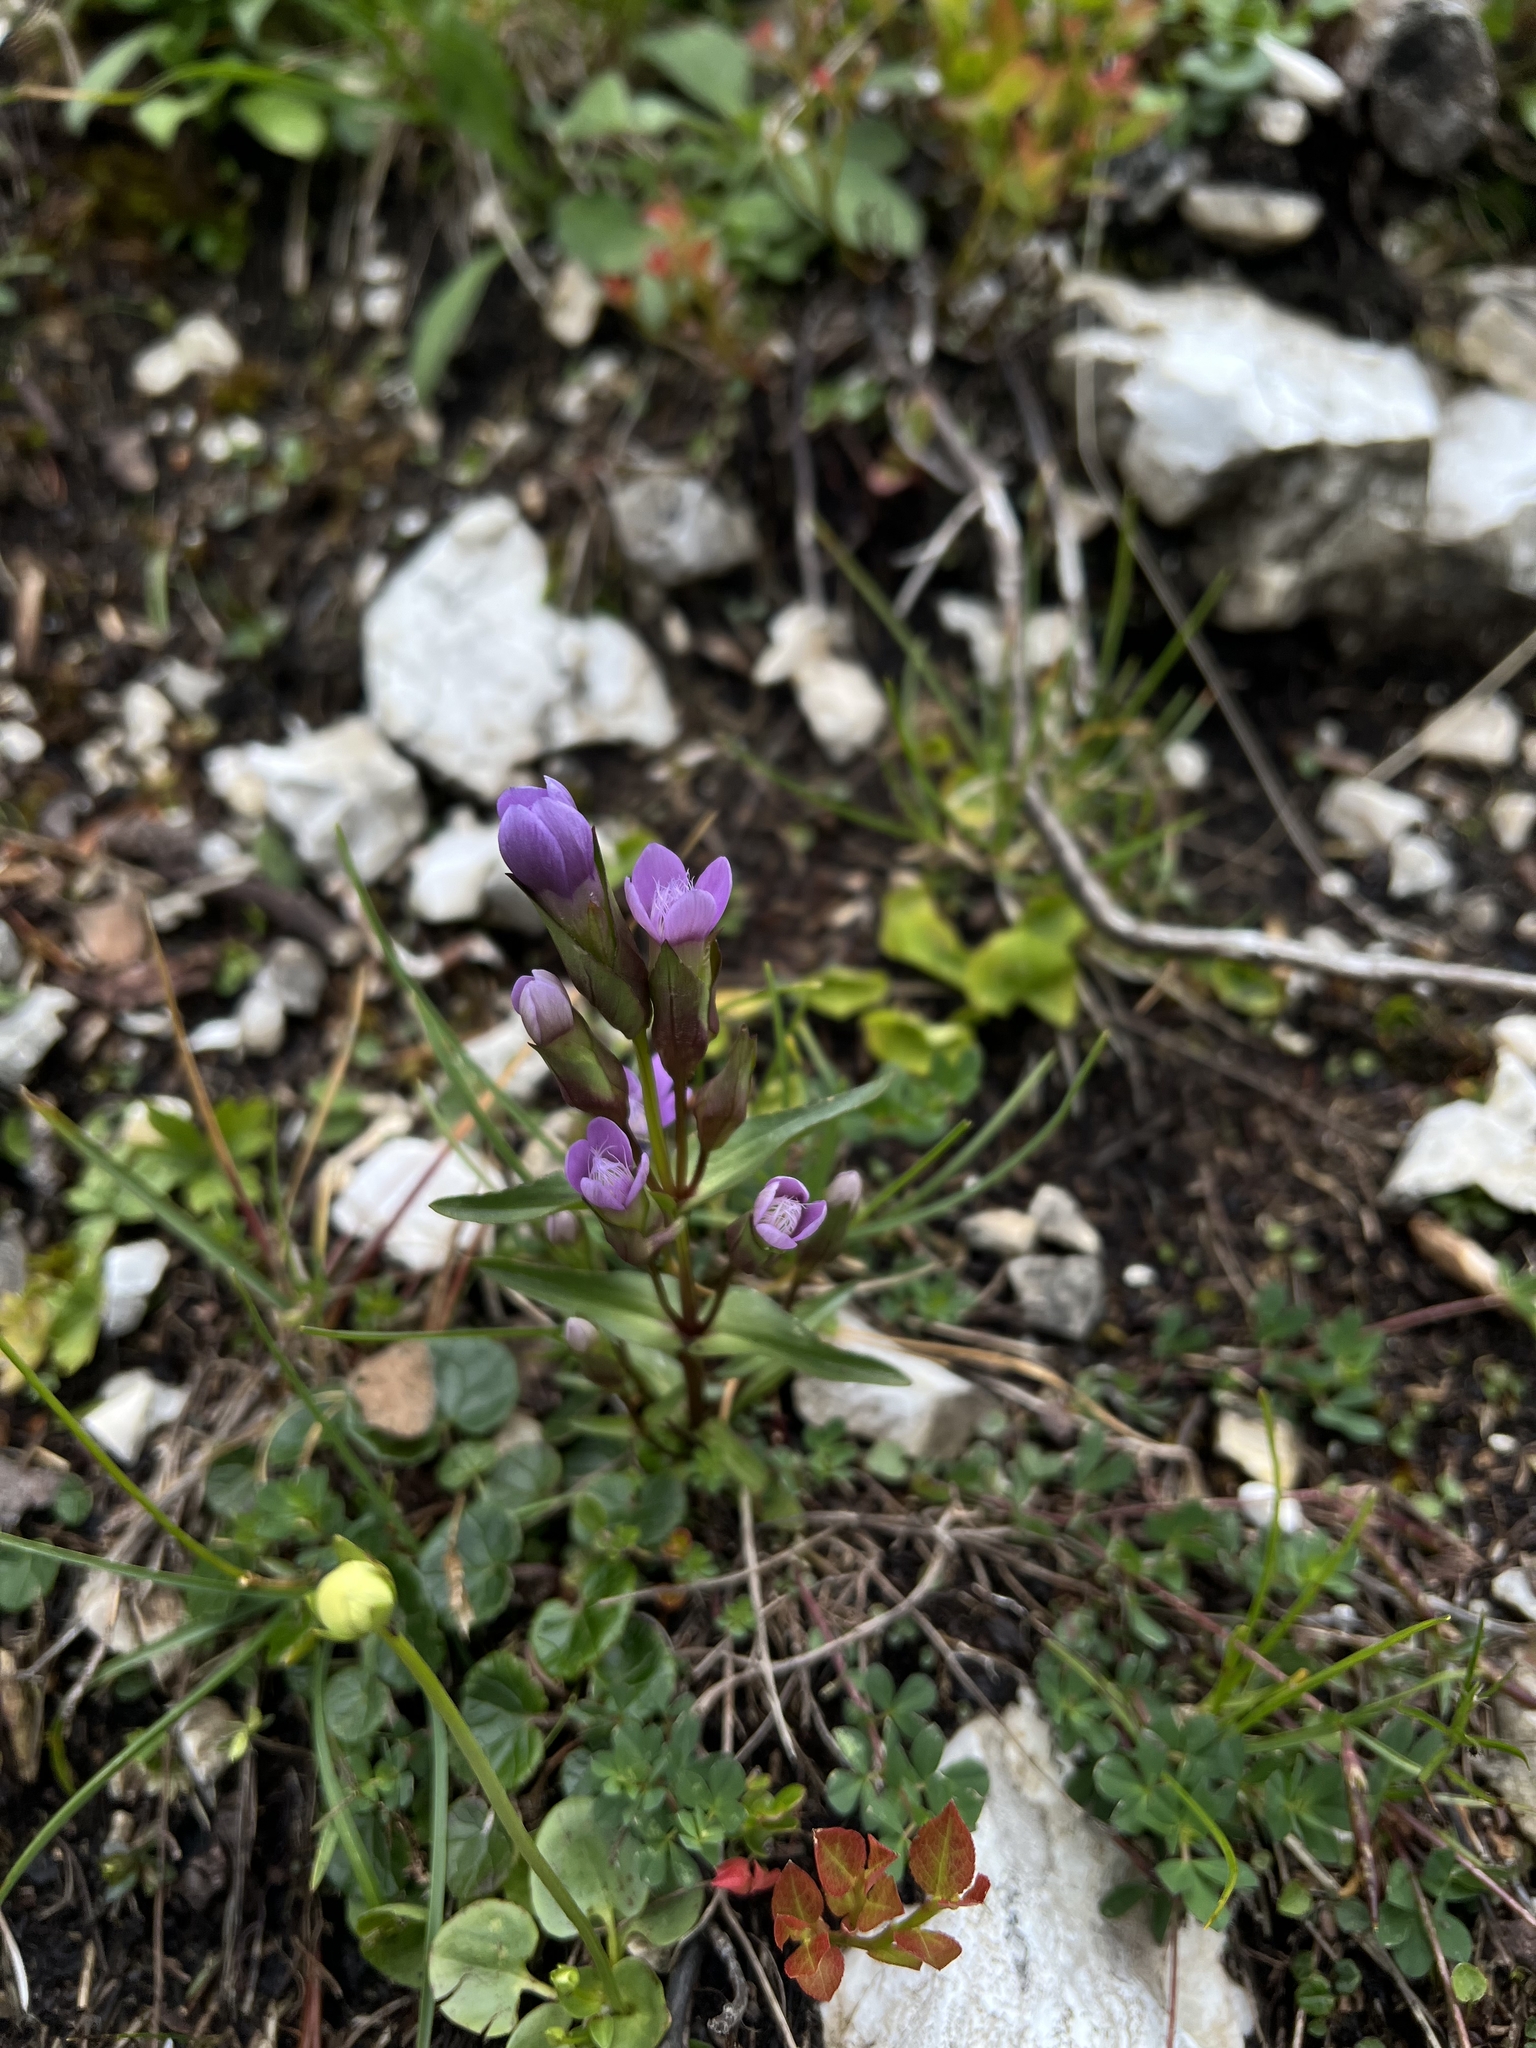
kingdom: Plantae
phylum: Tracheophyta
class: Magnoliopsida
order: Gentianales
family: Gentianaceae
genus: Gentianella
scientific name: Gentianella campestris
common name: Field gentian
